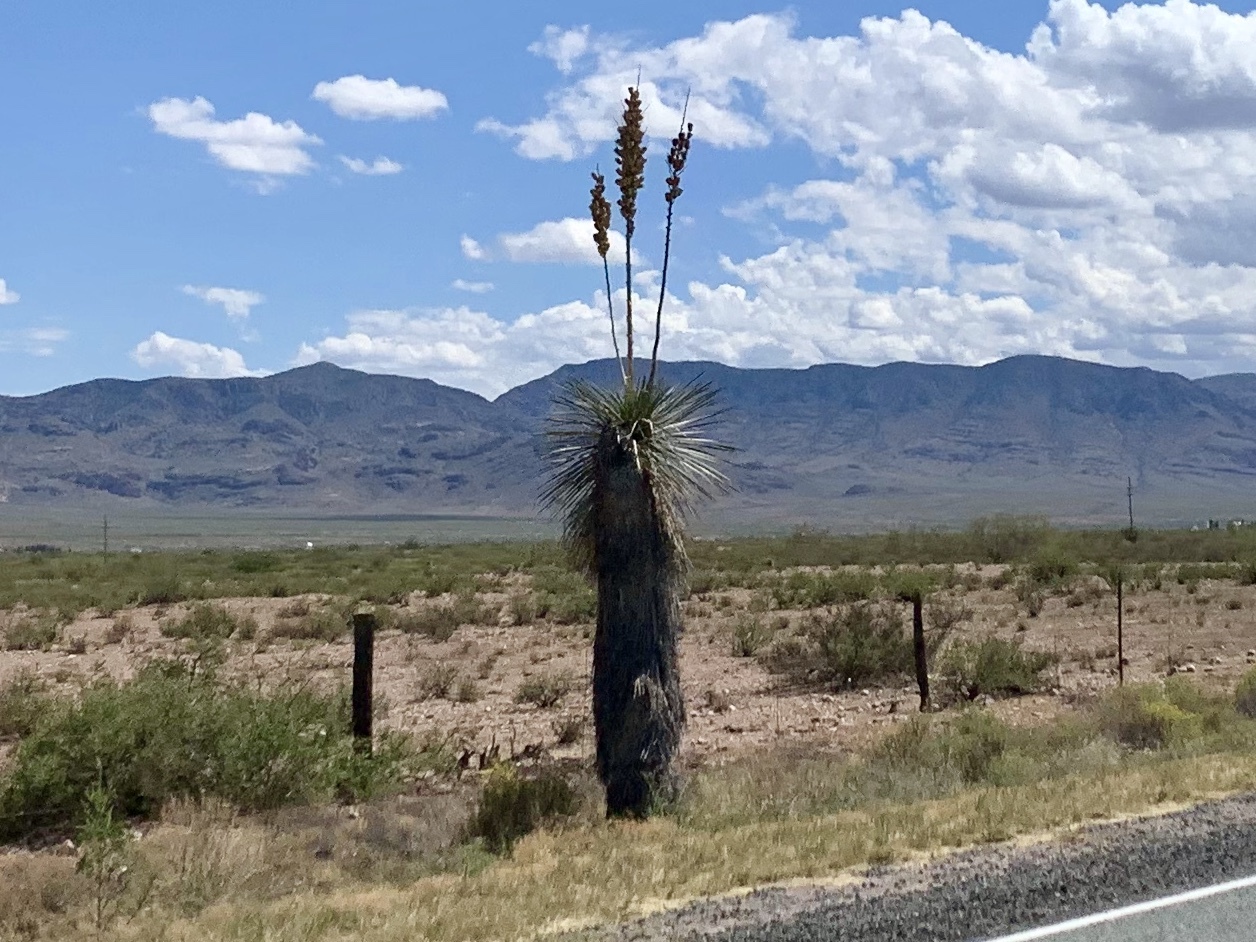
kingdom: Plantae
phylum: Tracheophyta
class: Liliopsida
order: Asparagales
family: Asparagaceae
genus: Yucca
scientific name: Yucca elata
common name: Palmella
